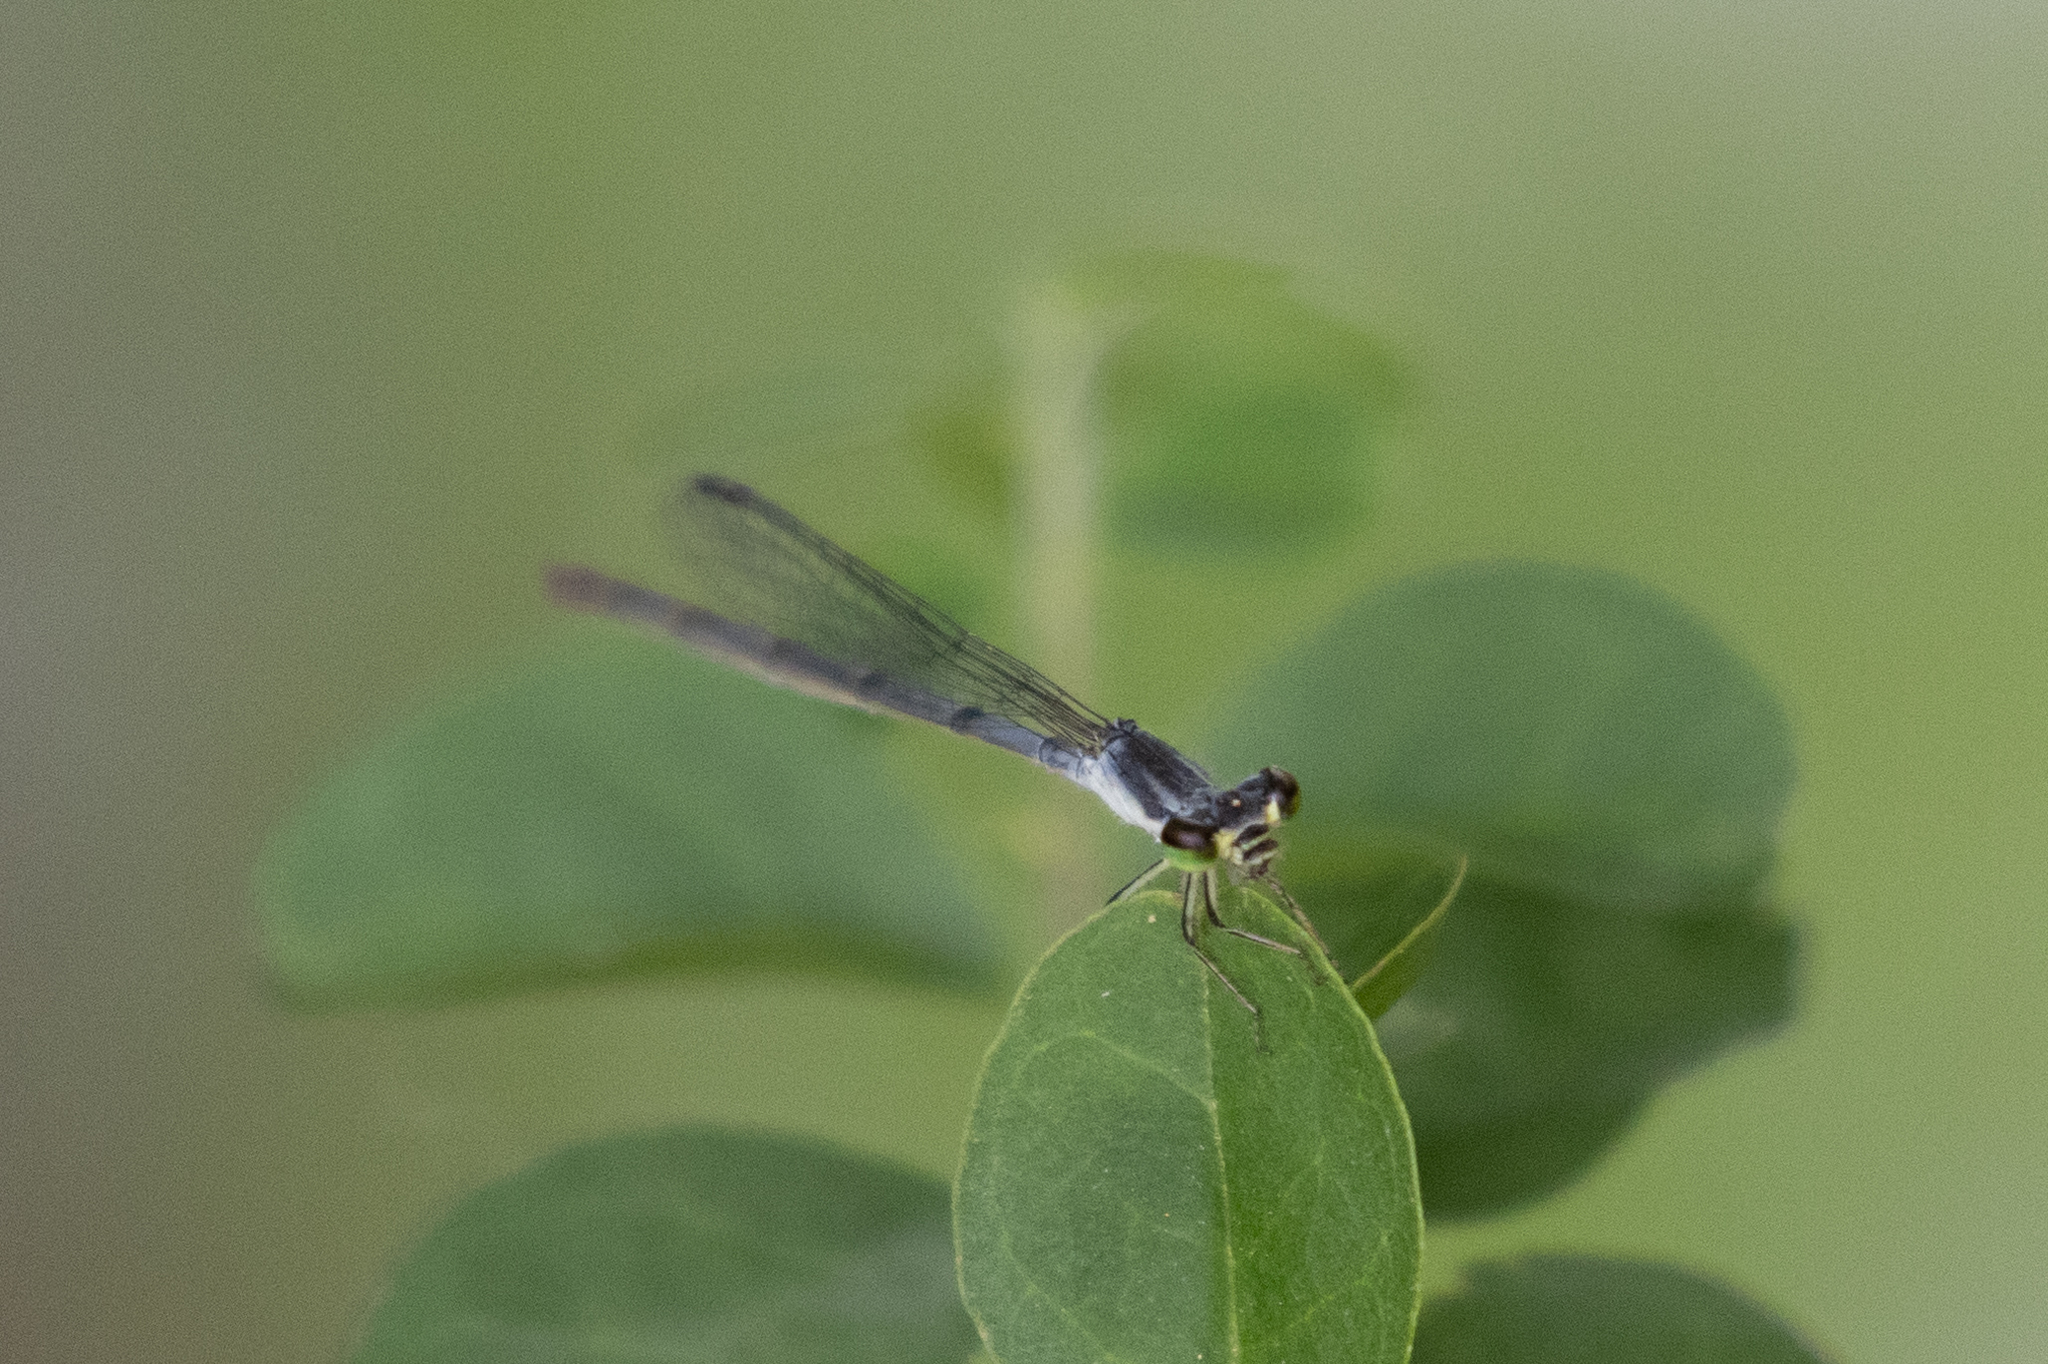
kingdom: Animalia
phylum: Arthropoda
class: Insecta
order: Odonata
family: Coenagrionidae
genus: Ischnura
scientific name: Ischnura posita
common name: Fragile forktail
